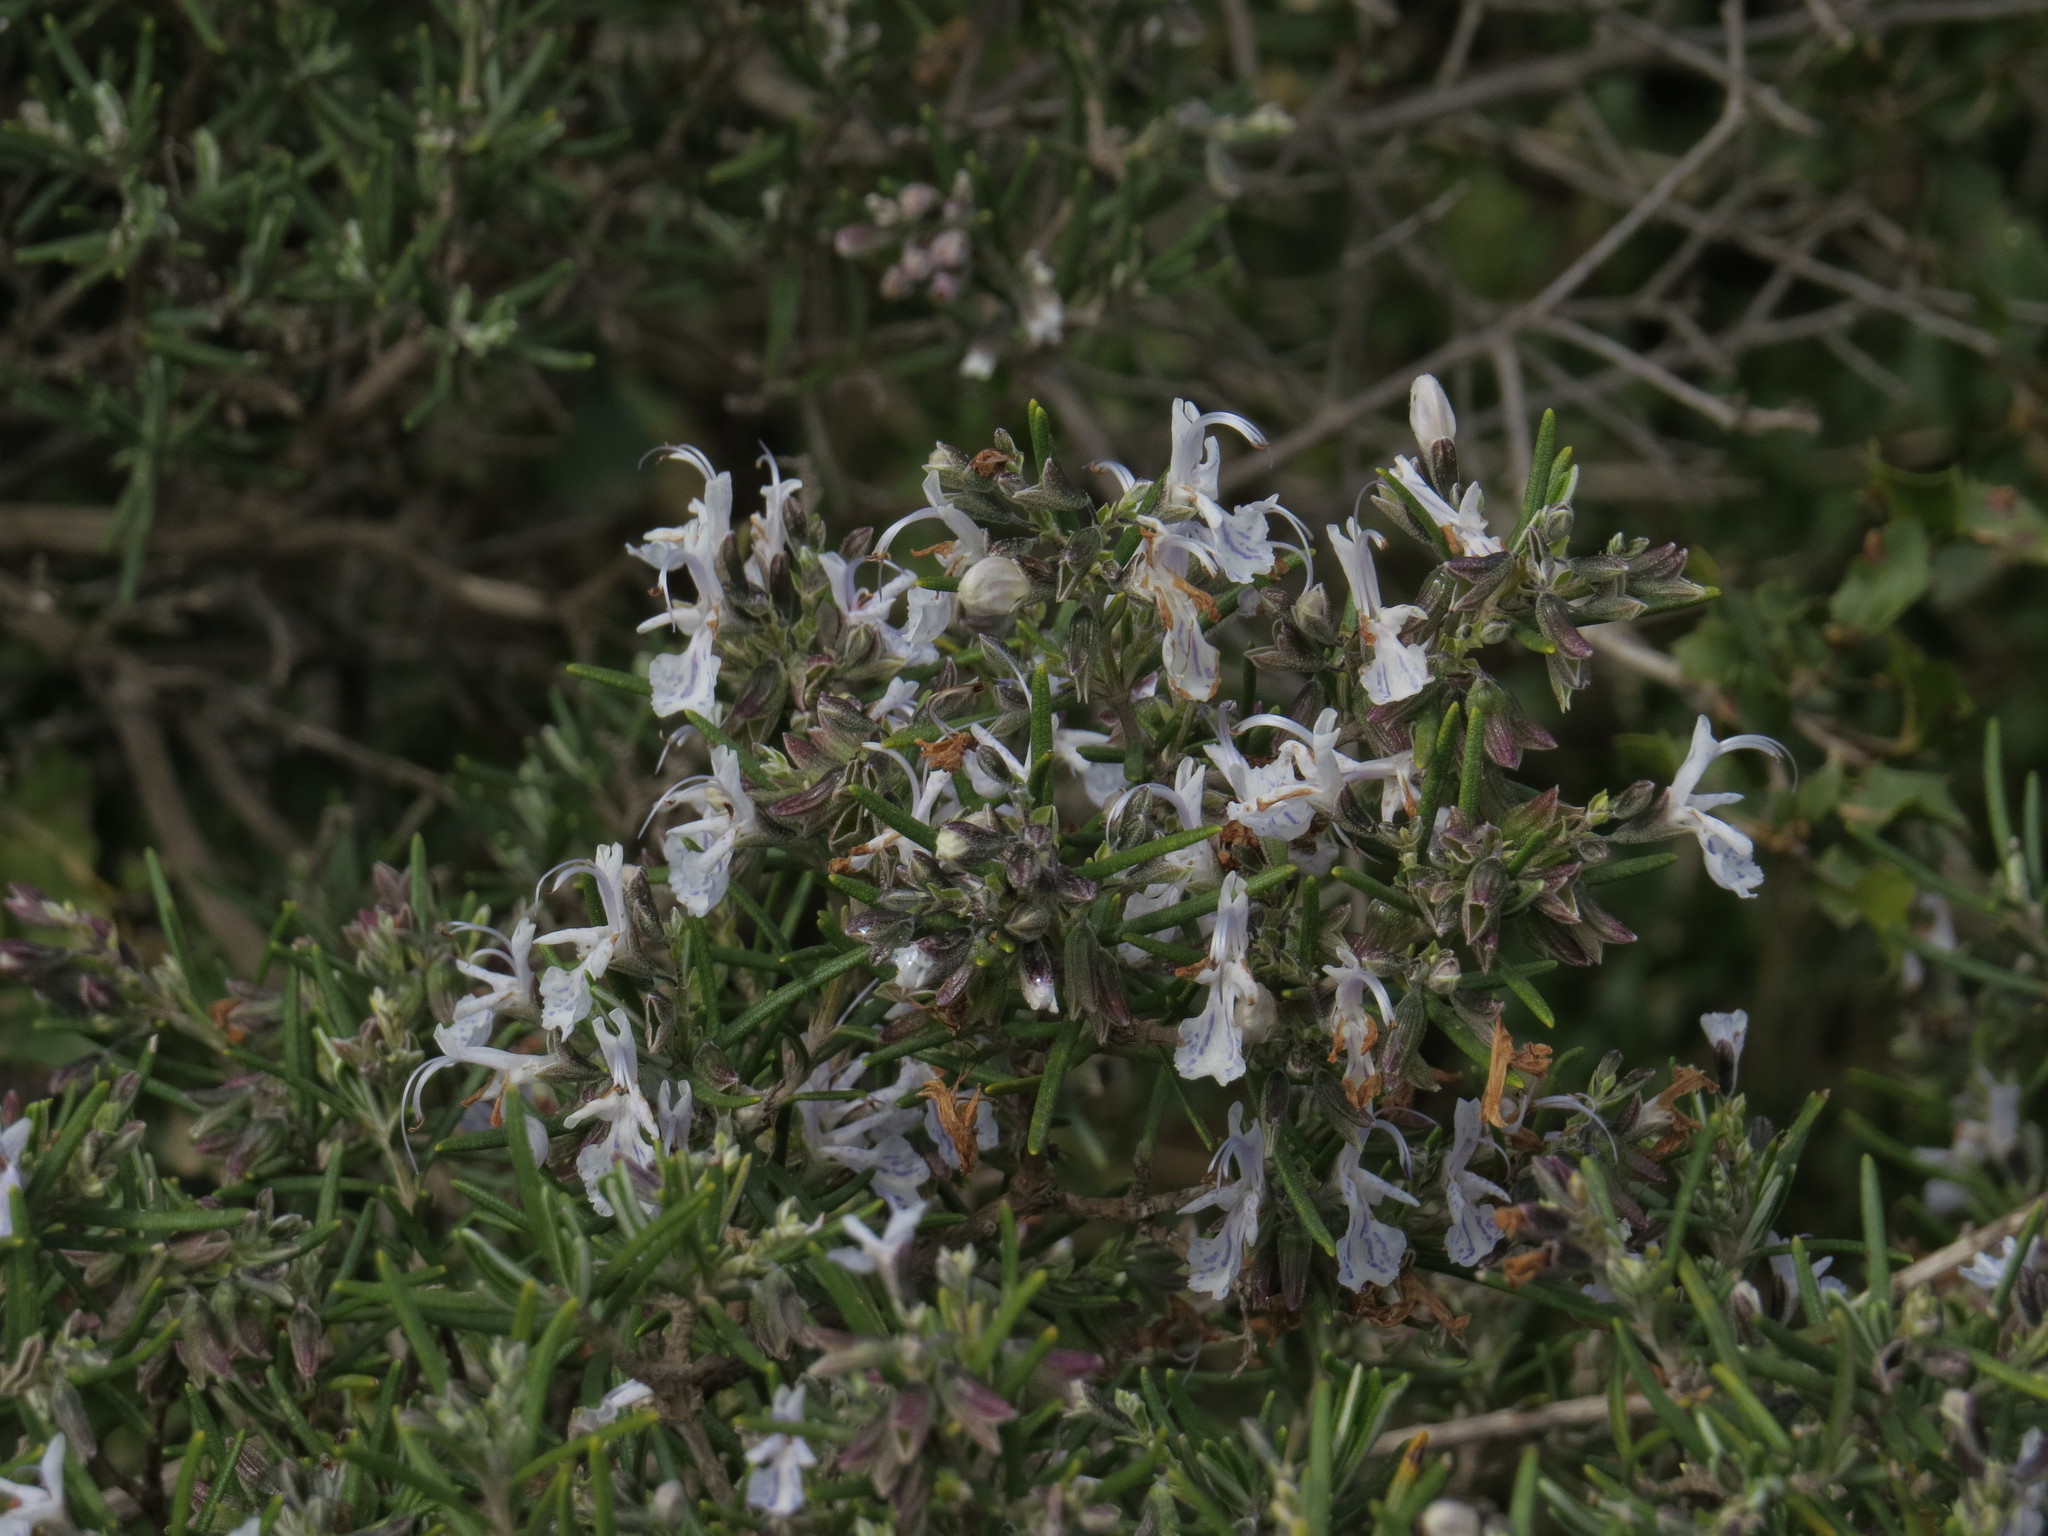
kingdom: Plantae
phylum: Tracheophyta
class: Magnoliopsida
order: Lamiales
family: Lamiaceae
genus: Salvia
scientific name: Salvia rosmarinus
